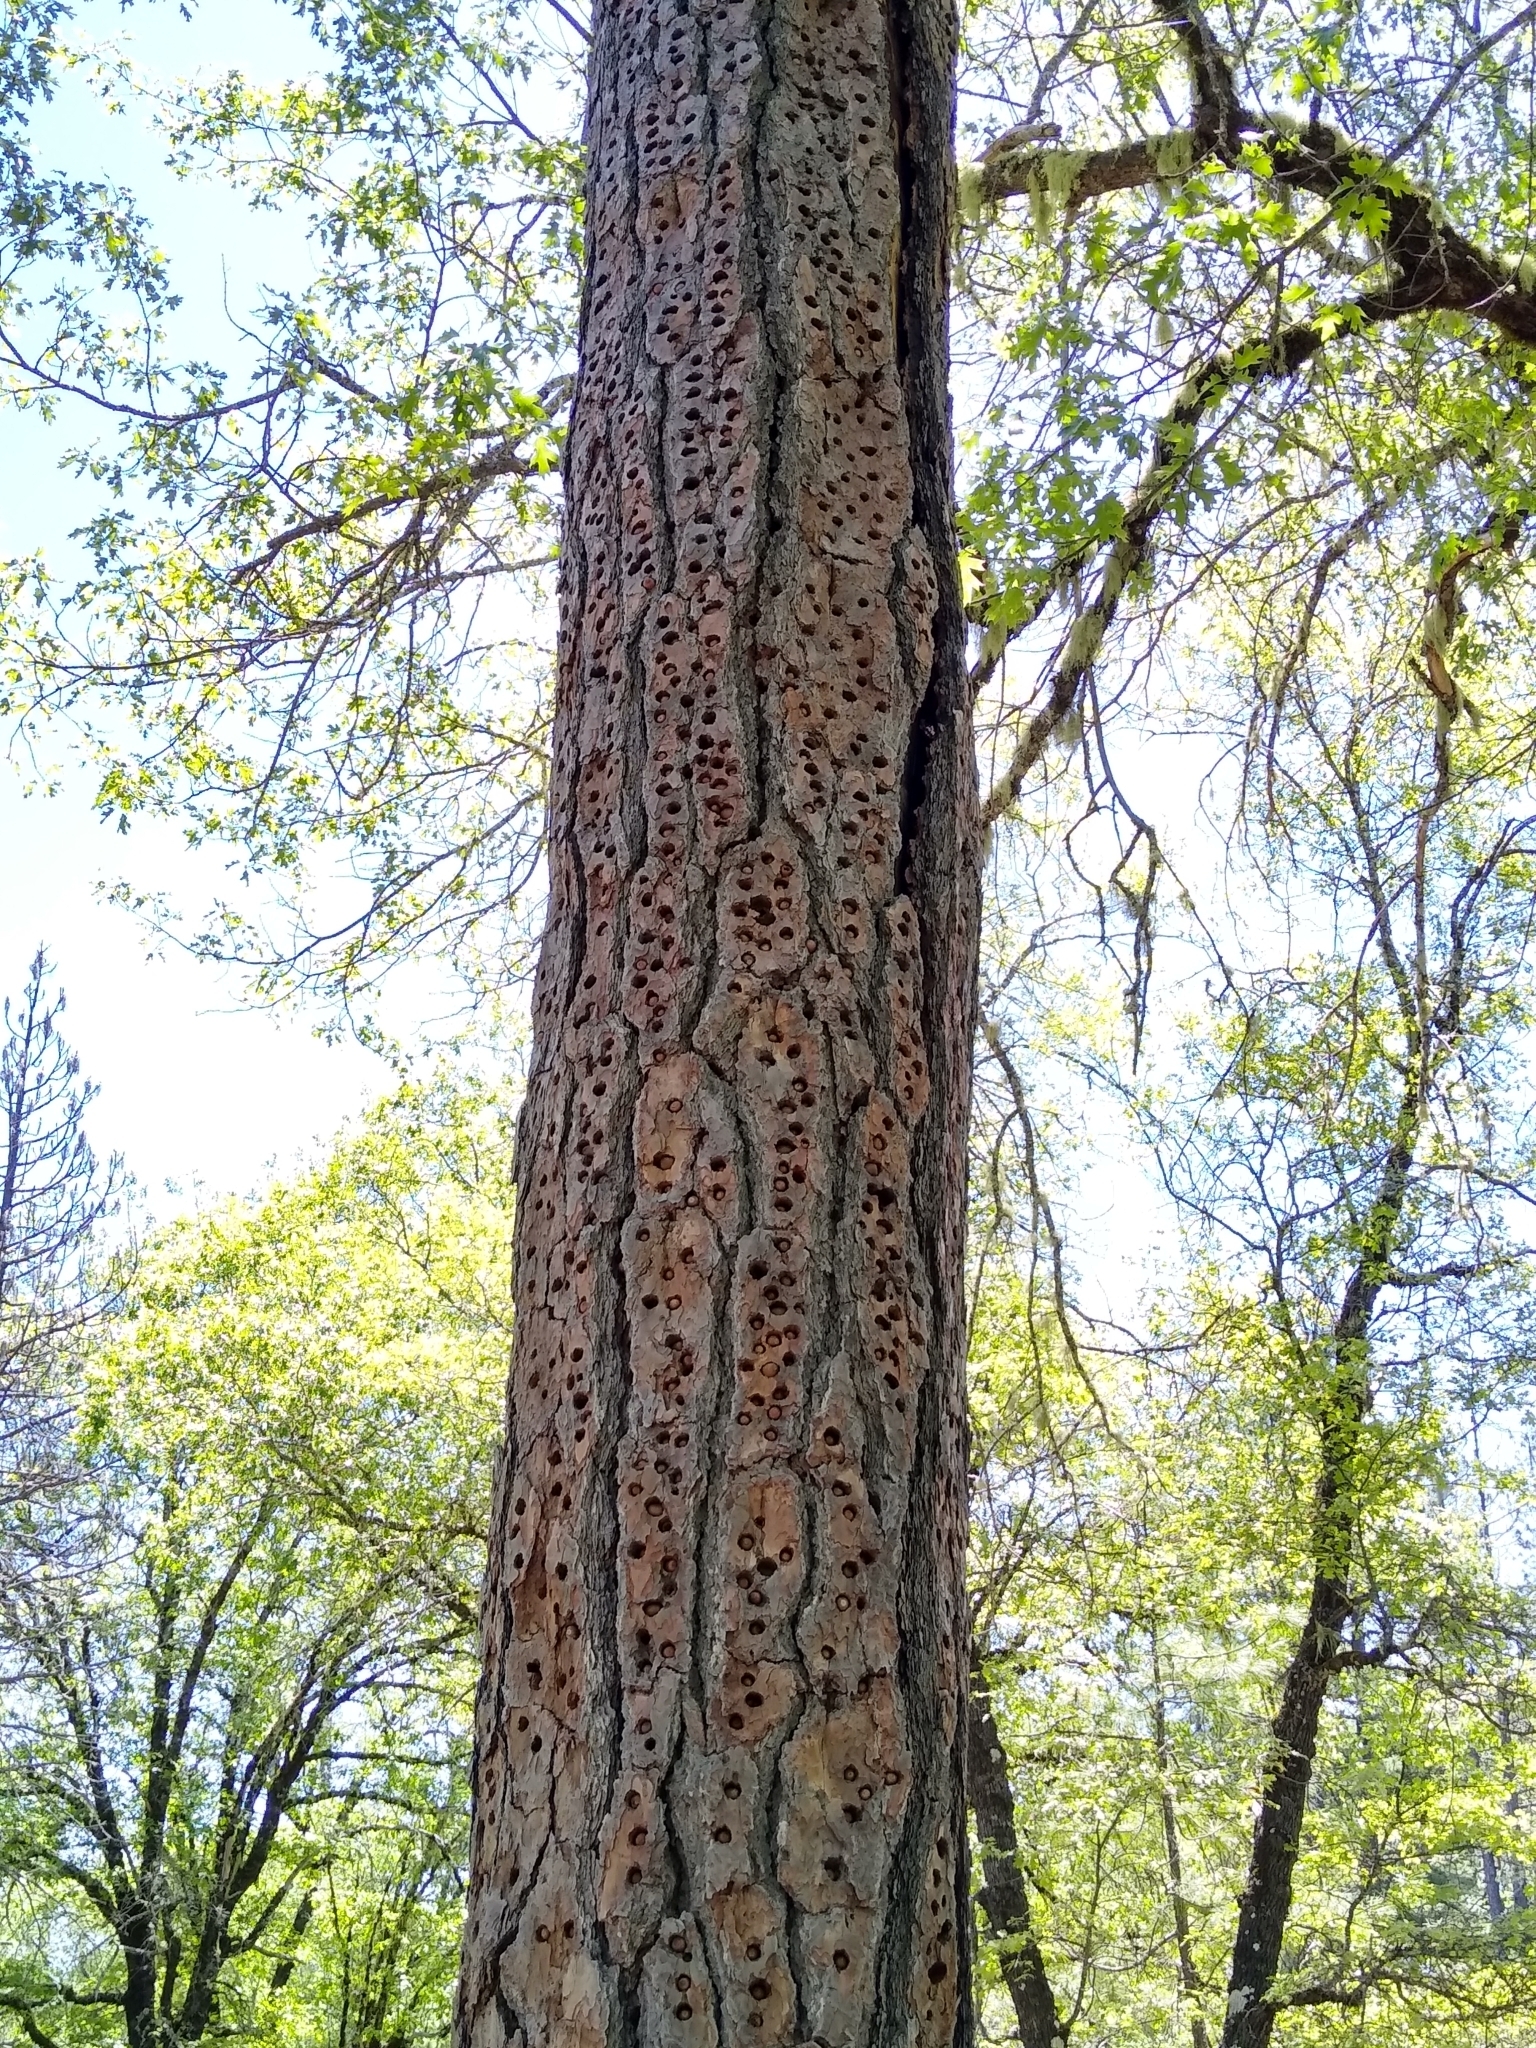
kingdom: Animalia
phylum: Chordata
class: Aves
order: Piciformes
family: Picidae
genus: Melanerpes
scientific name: Melanerpes formicivorus
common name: Acorn woodpecker
